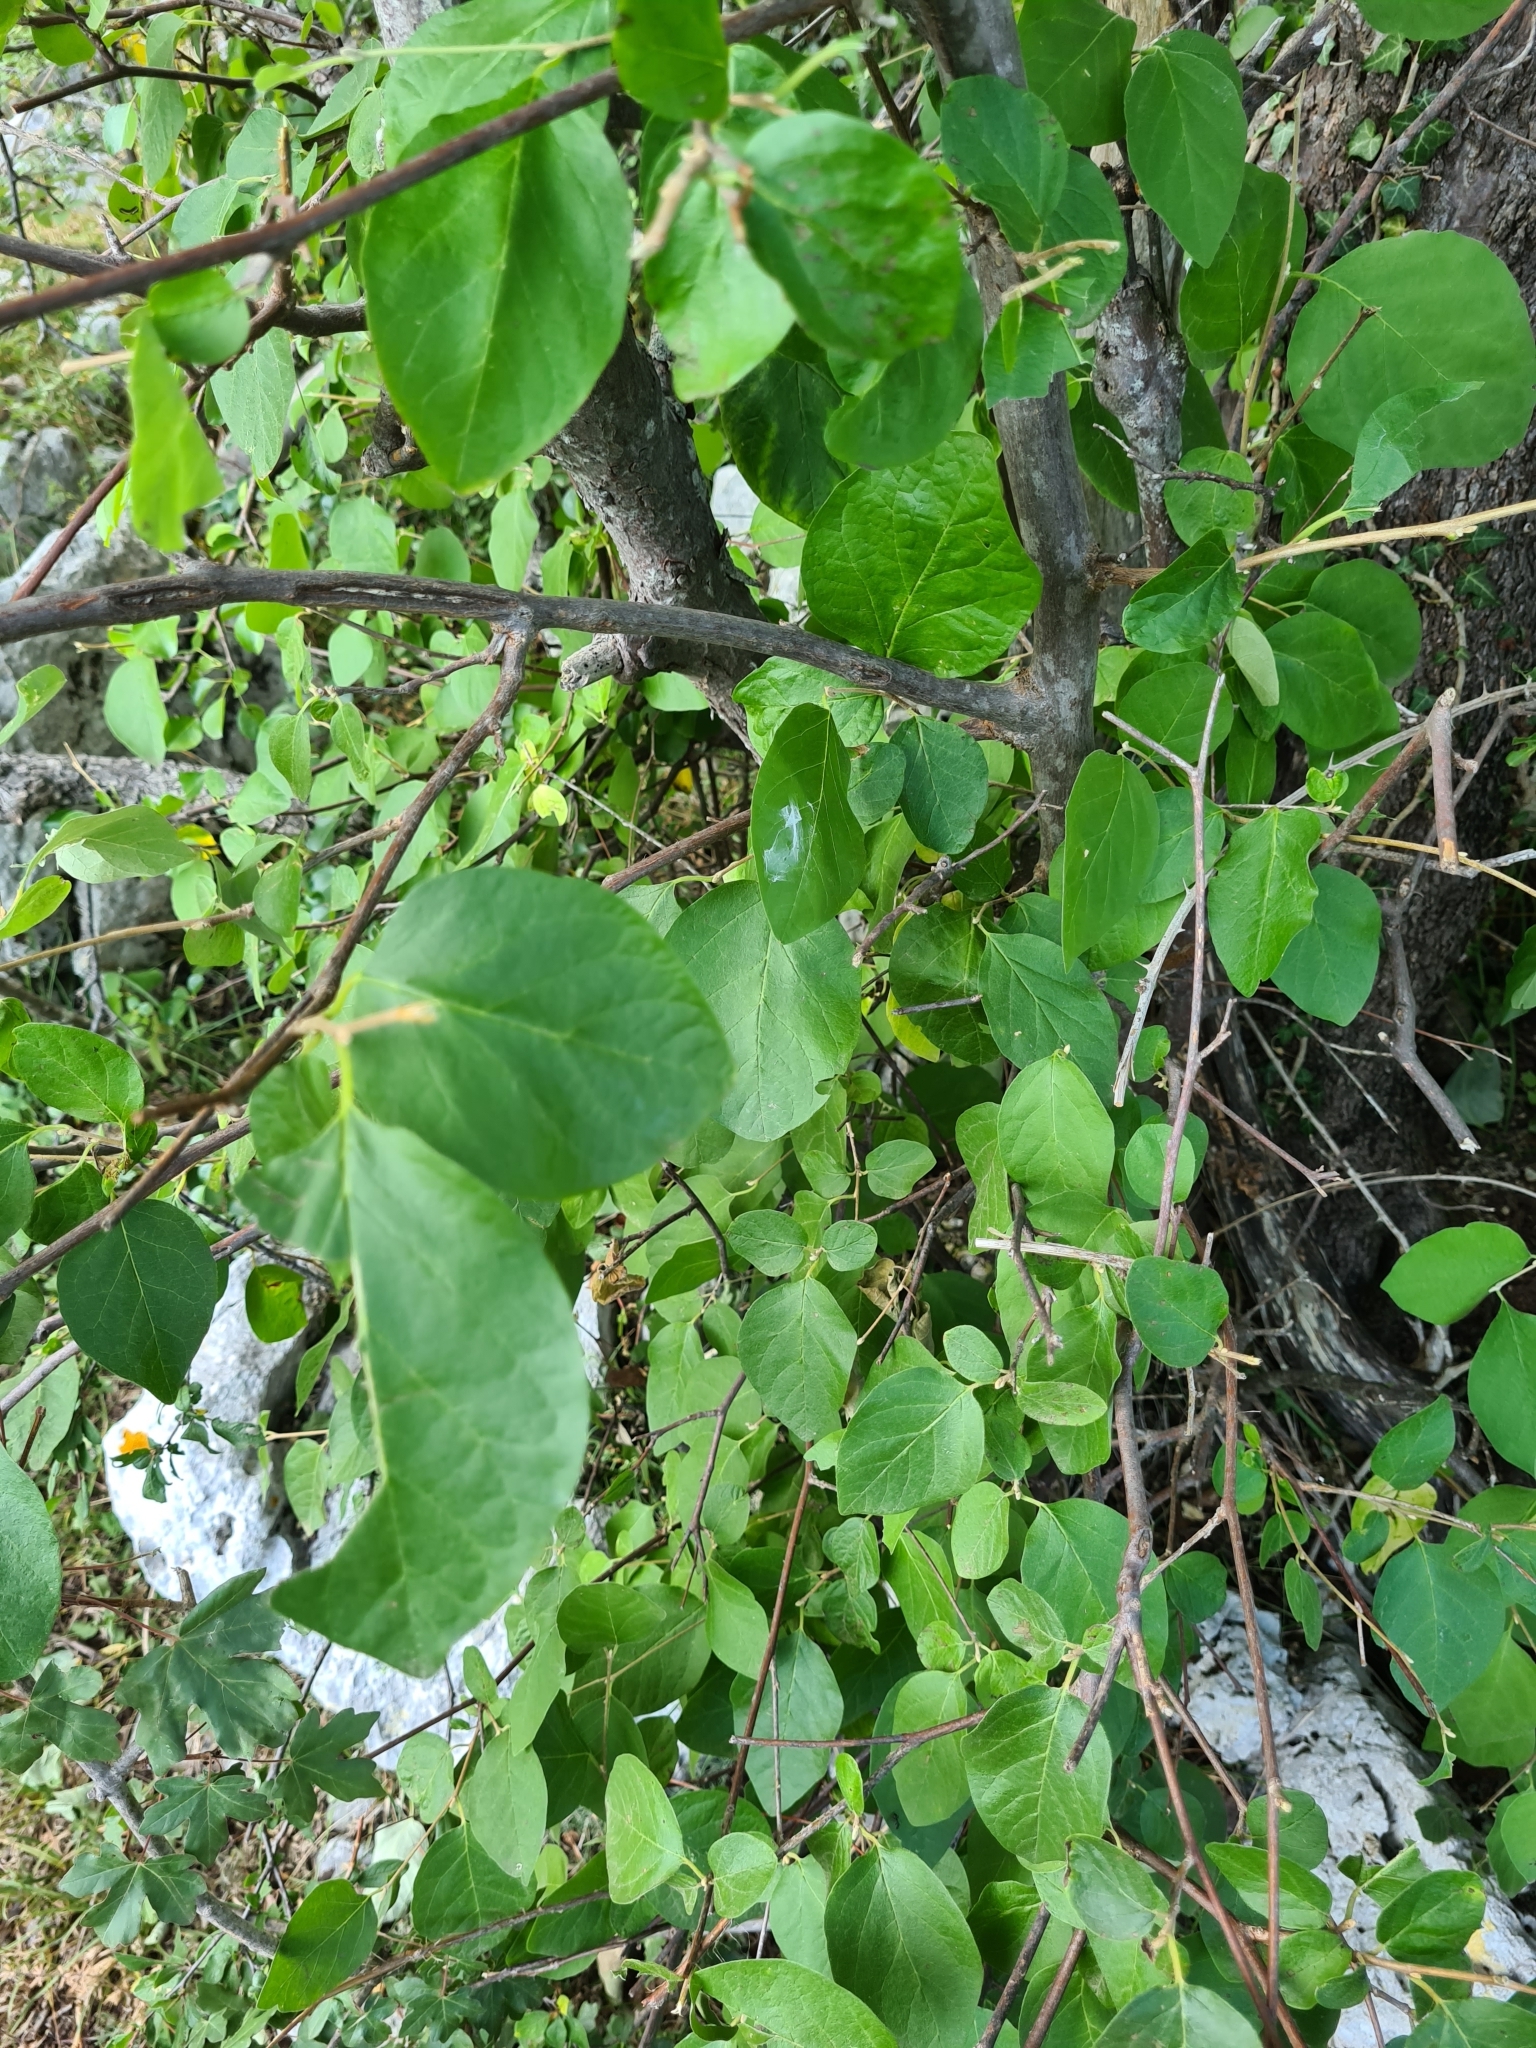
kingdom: Plantae
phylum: Tracheophyta
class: Magnoliopsida
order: Ericales
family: Styracaceae
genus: Styrax
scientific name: Styrax officinalis
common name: Storax
